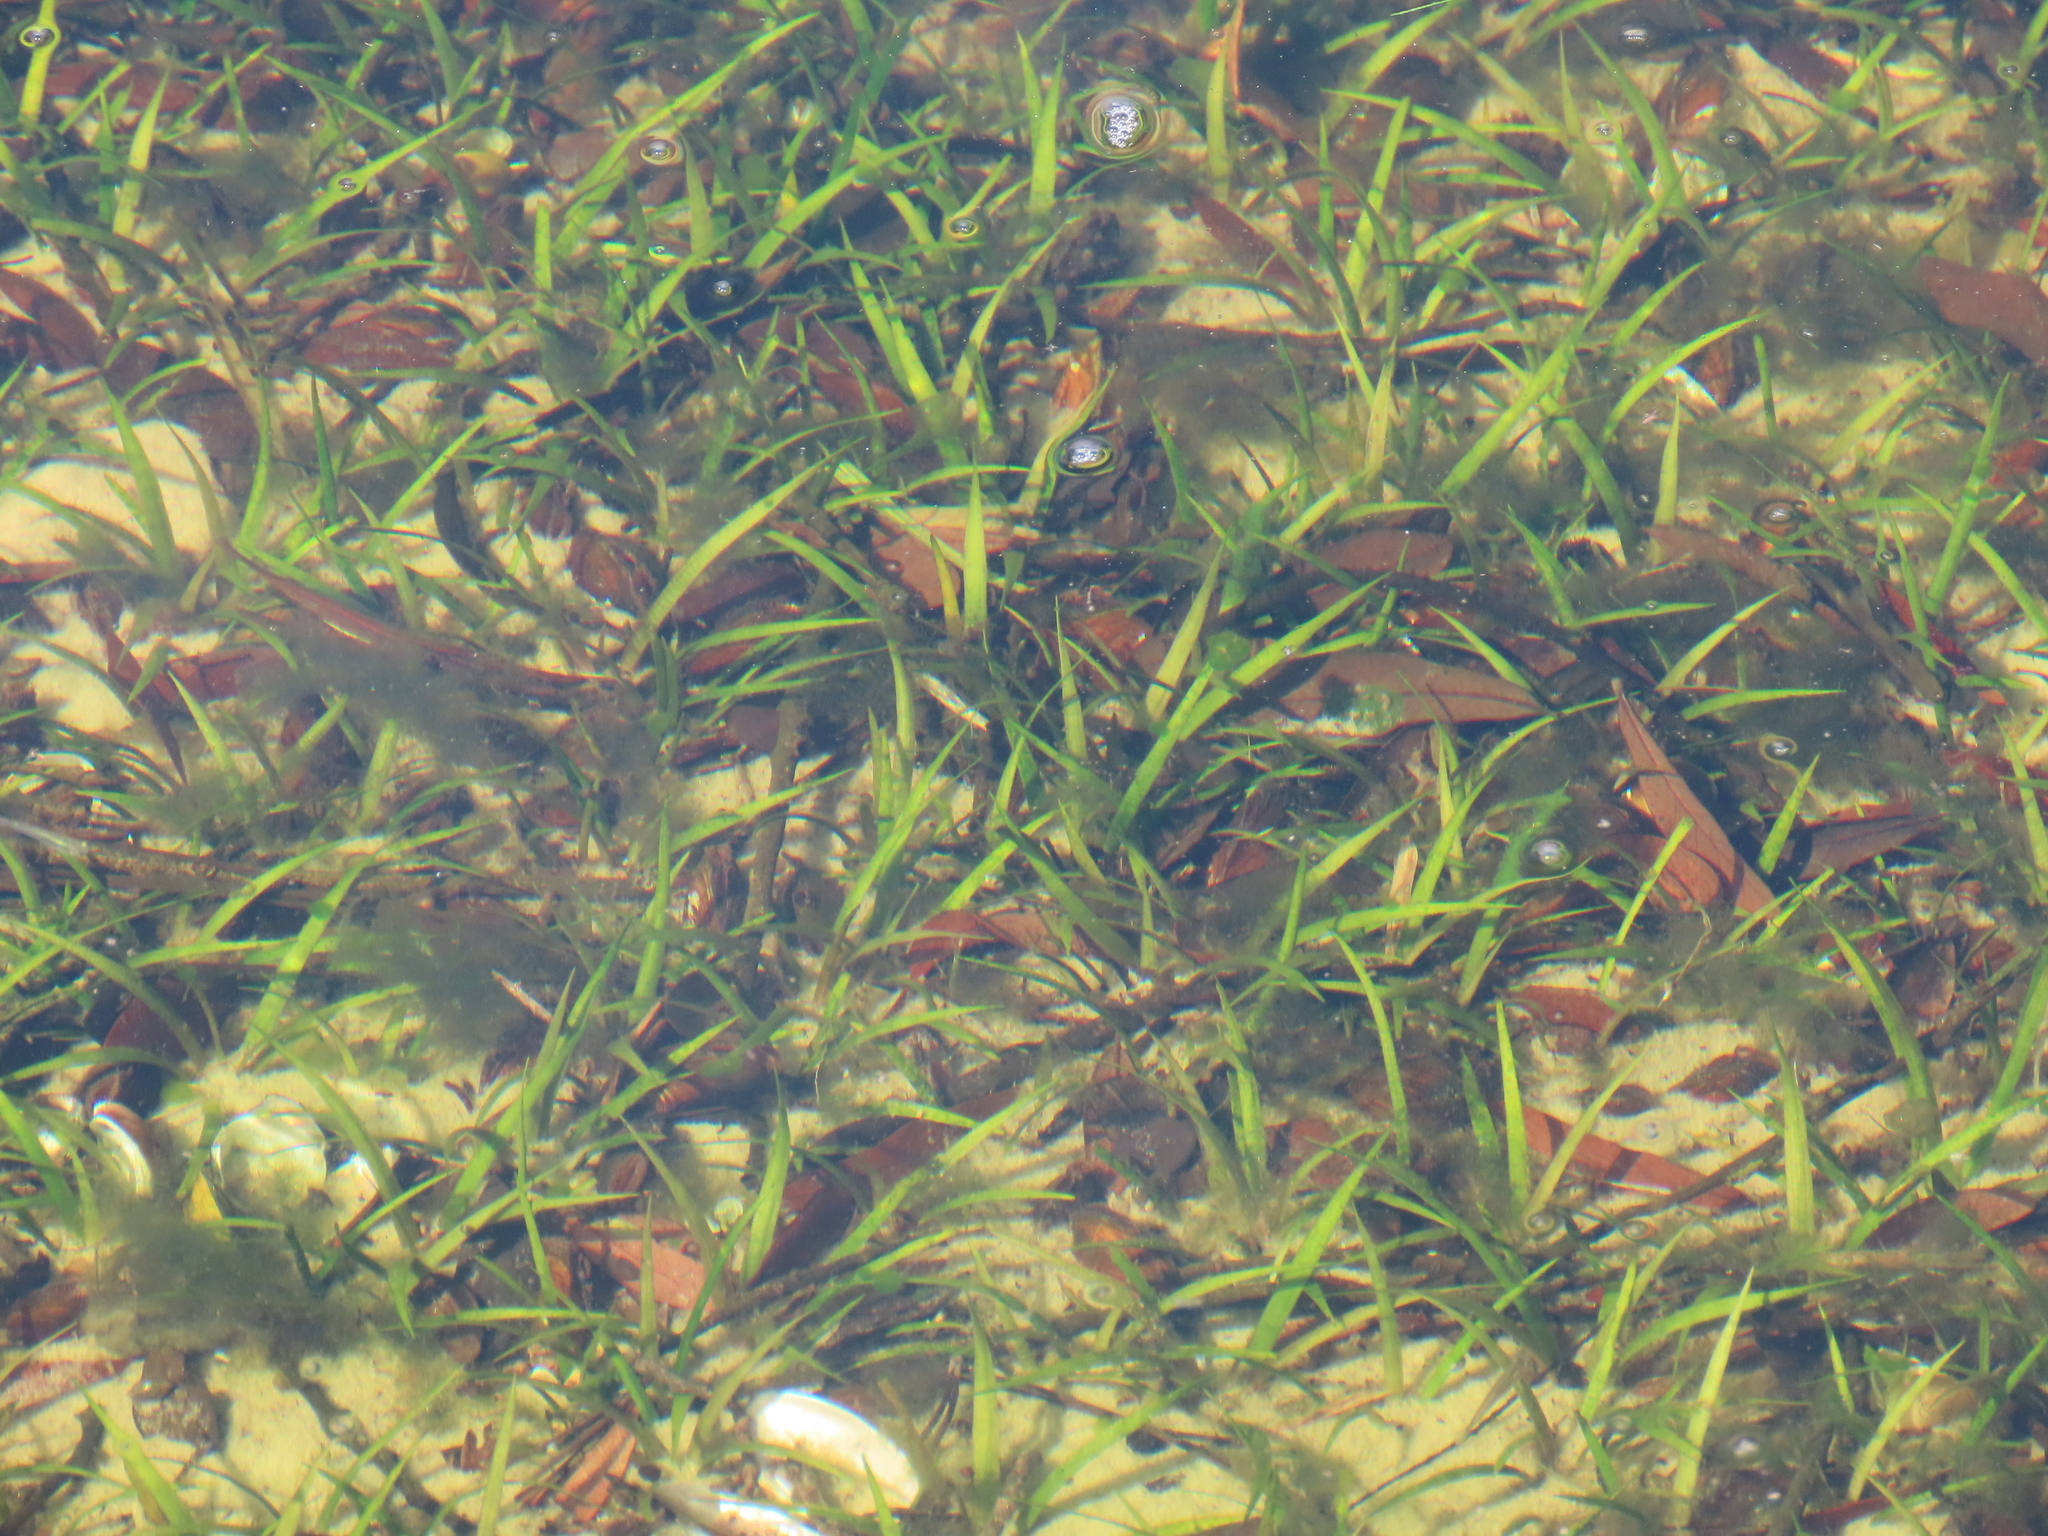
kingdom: Plantae
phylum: Tracheophyta
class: Liliopsida
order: Poales
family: Juncaceae
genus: Juncus
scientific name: Juncus repens
